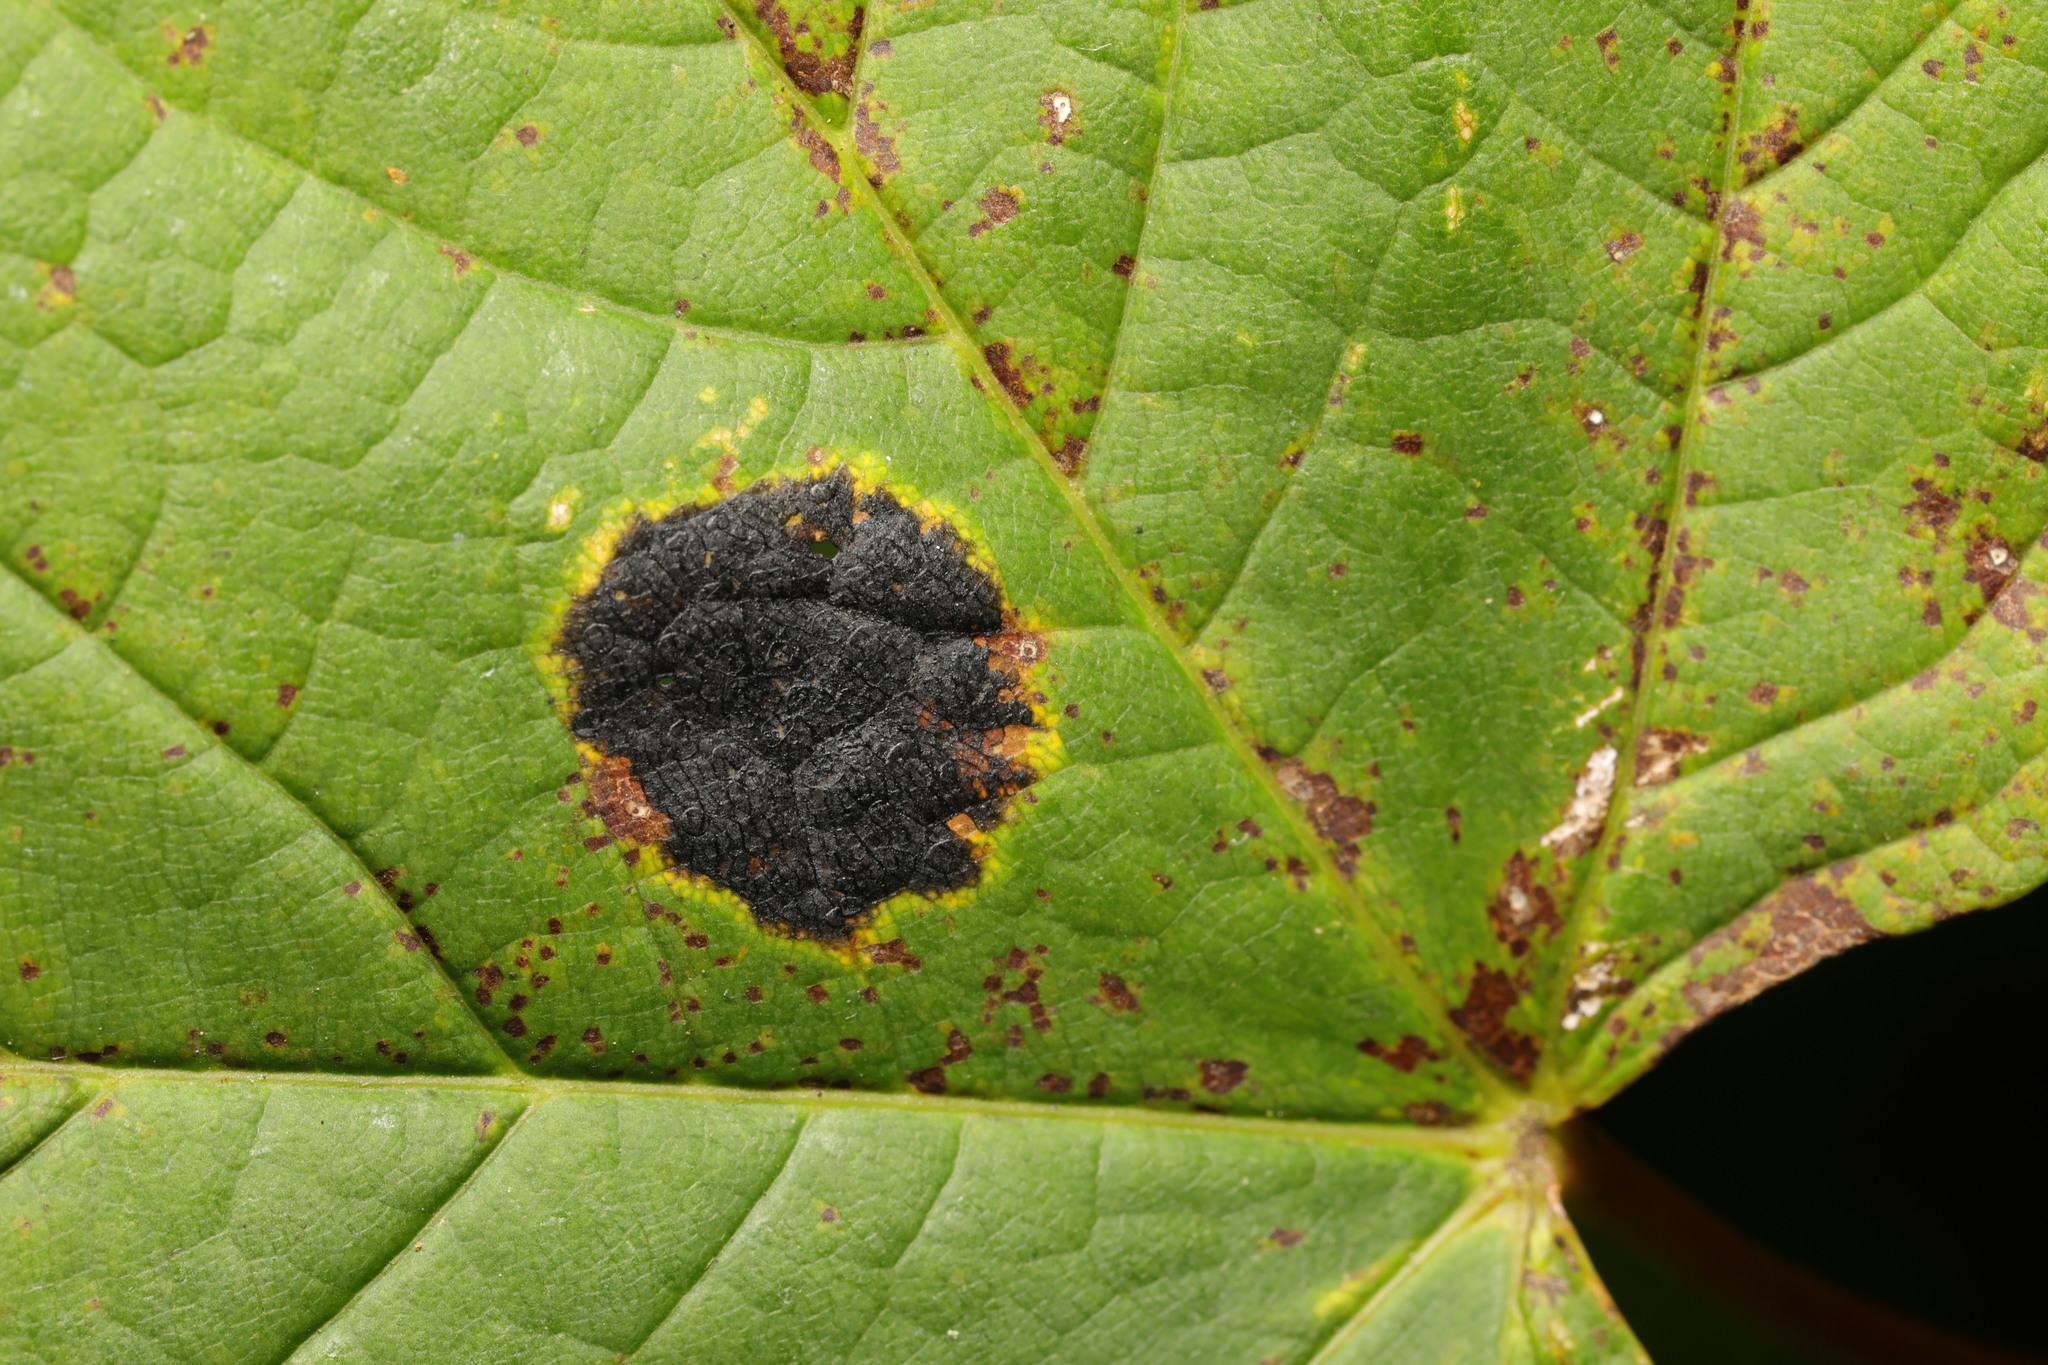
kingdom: Fungi
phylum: Ascomycota
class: Leotiomycetes
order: Rhytismatales
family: Rhytismataceae
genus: Rhytisma
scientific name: Rhytisma acerinum
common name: European tar spot
